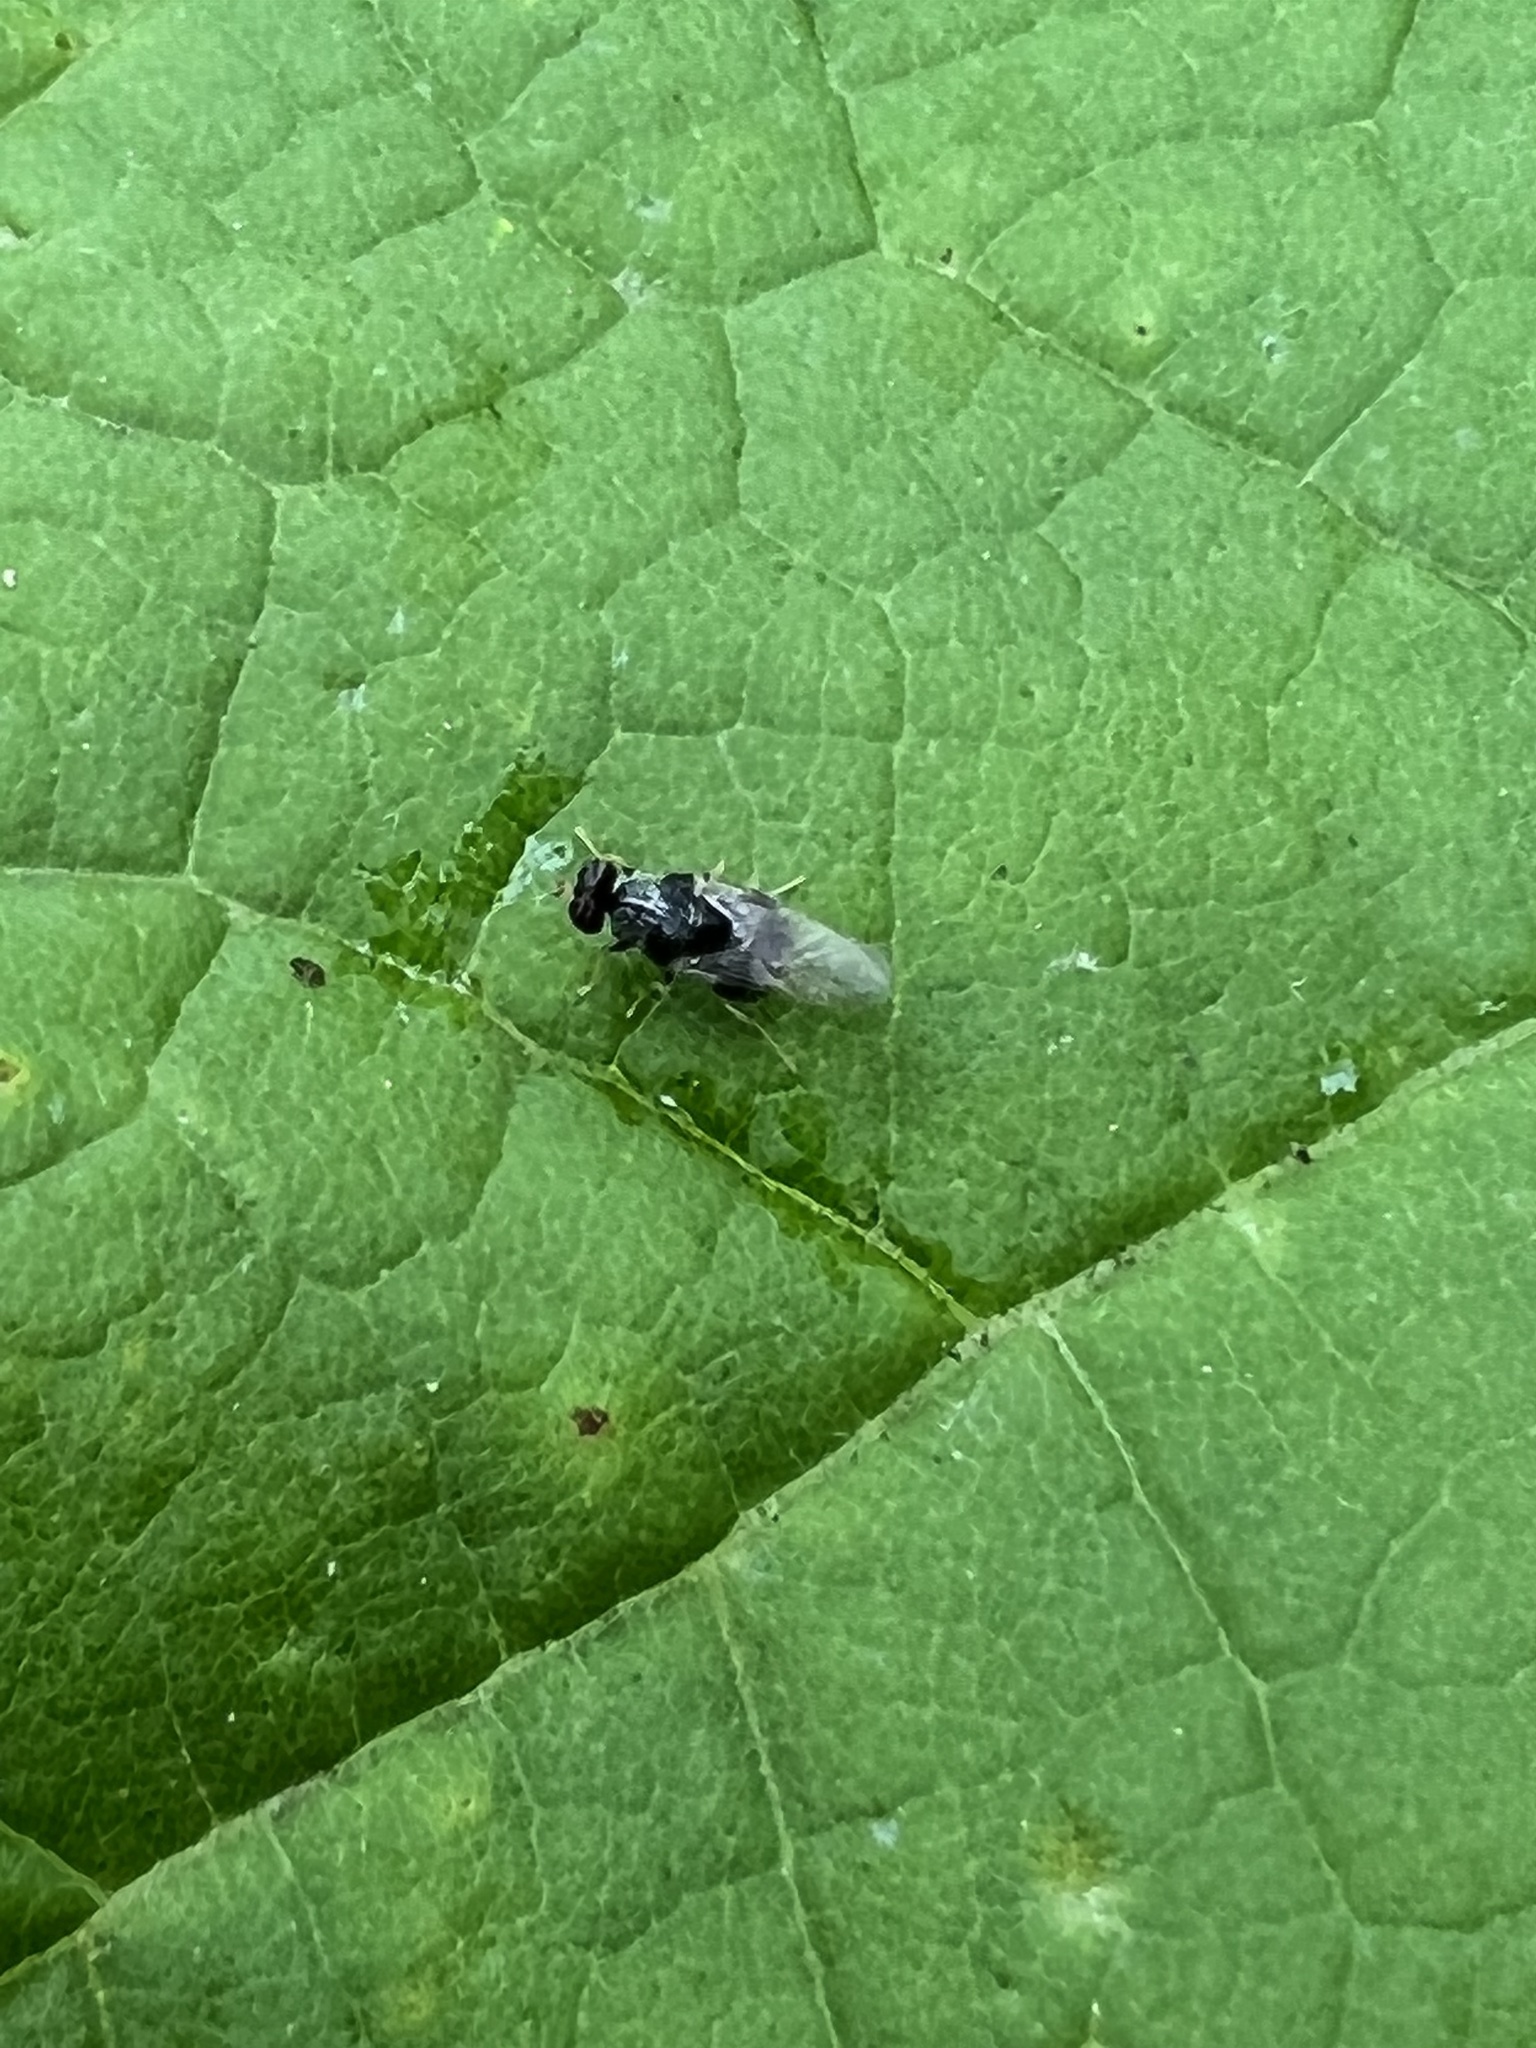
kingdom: Animalia
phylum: Arthropoda
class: Insecta
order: Diptera
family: Stratiomyidae
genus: Gowdeyana
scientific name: Gowdeyana punctifera
